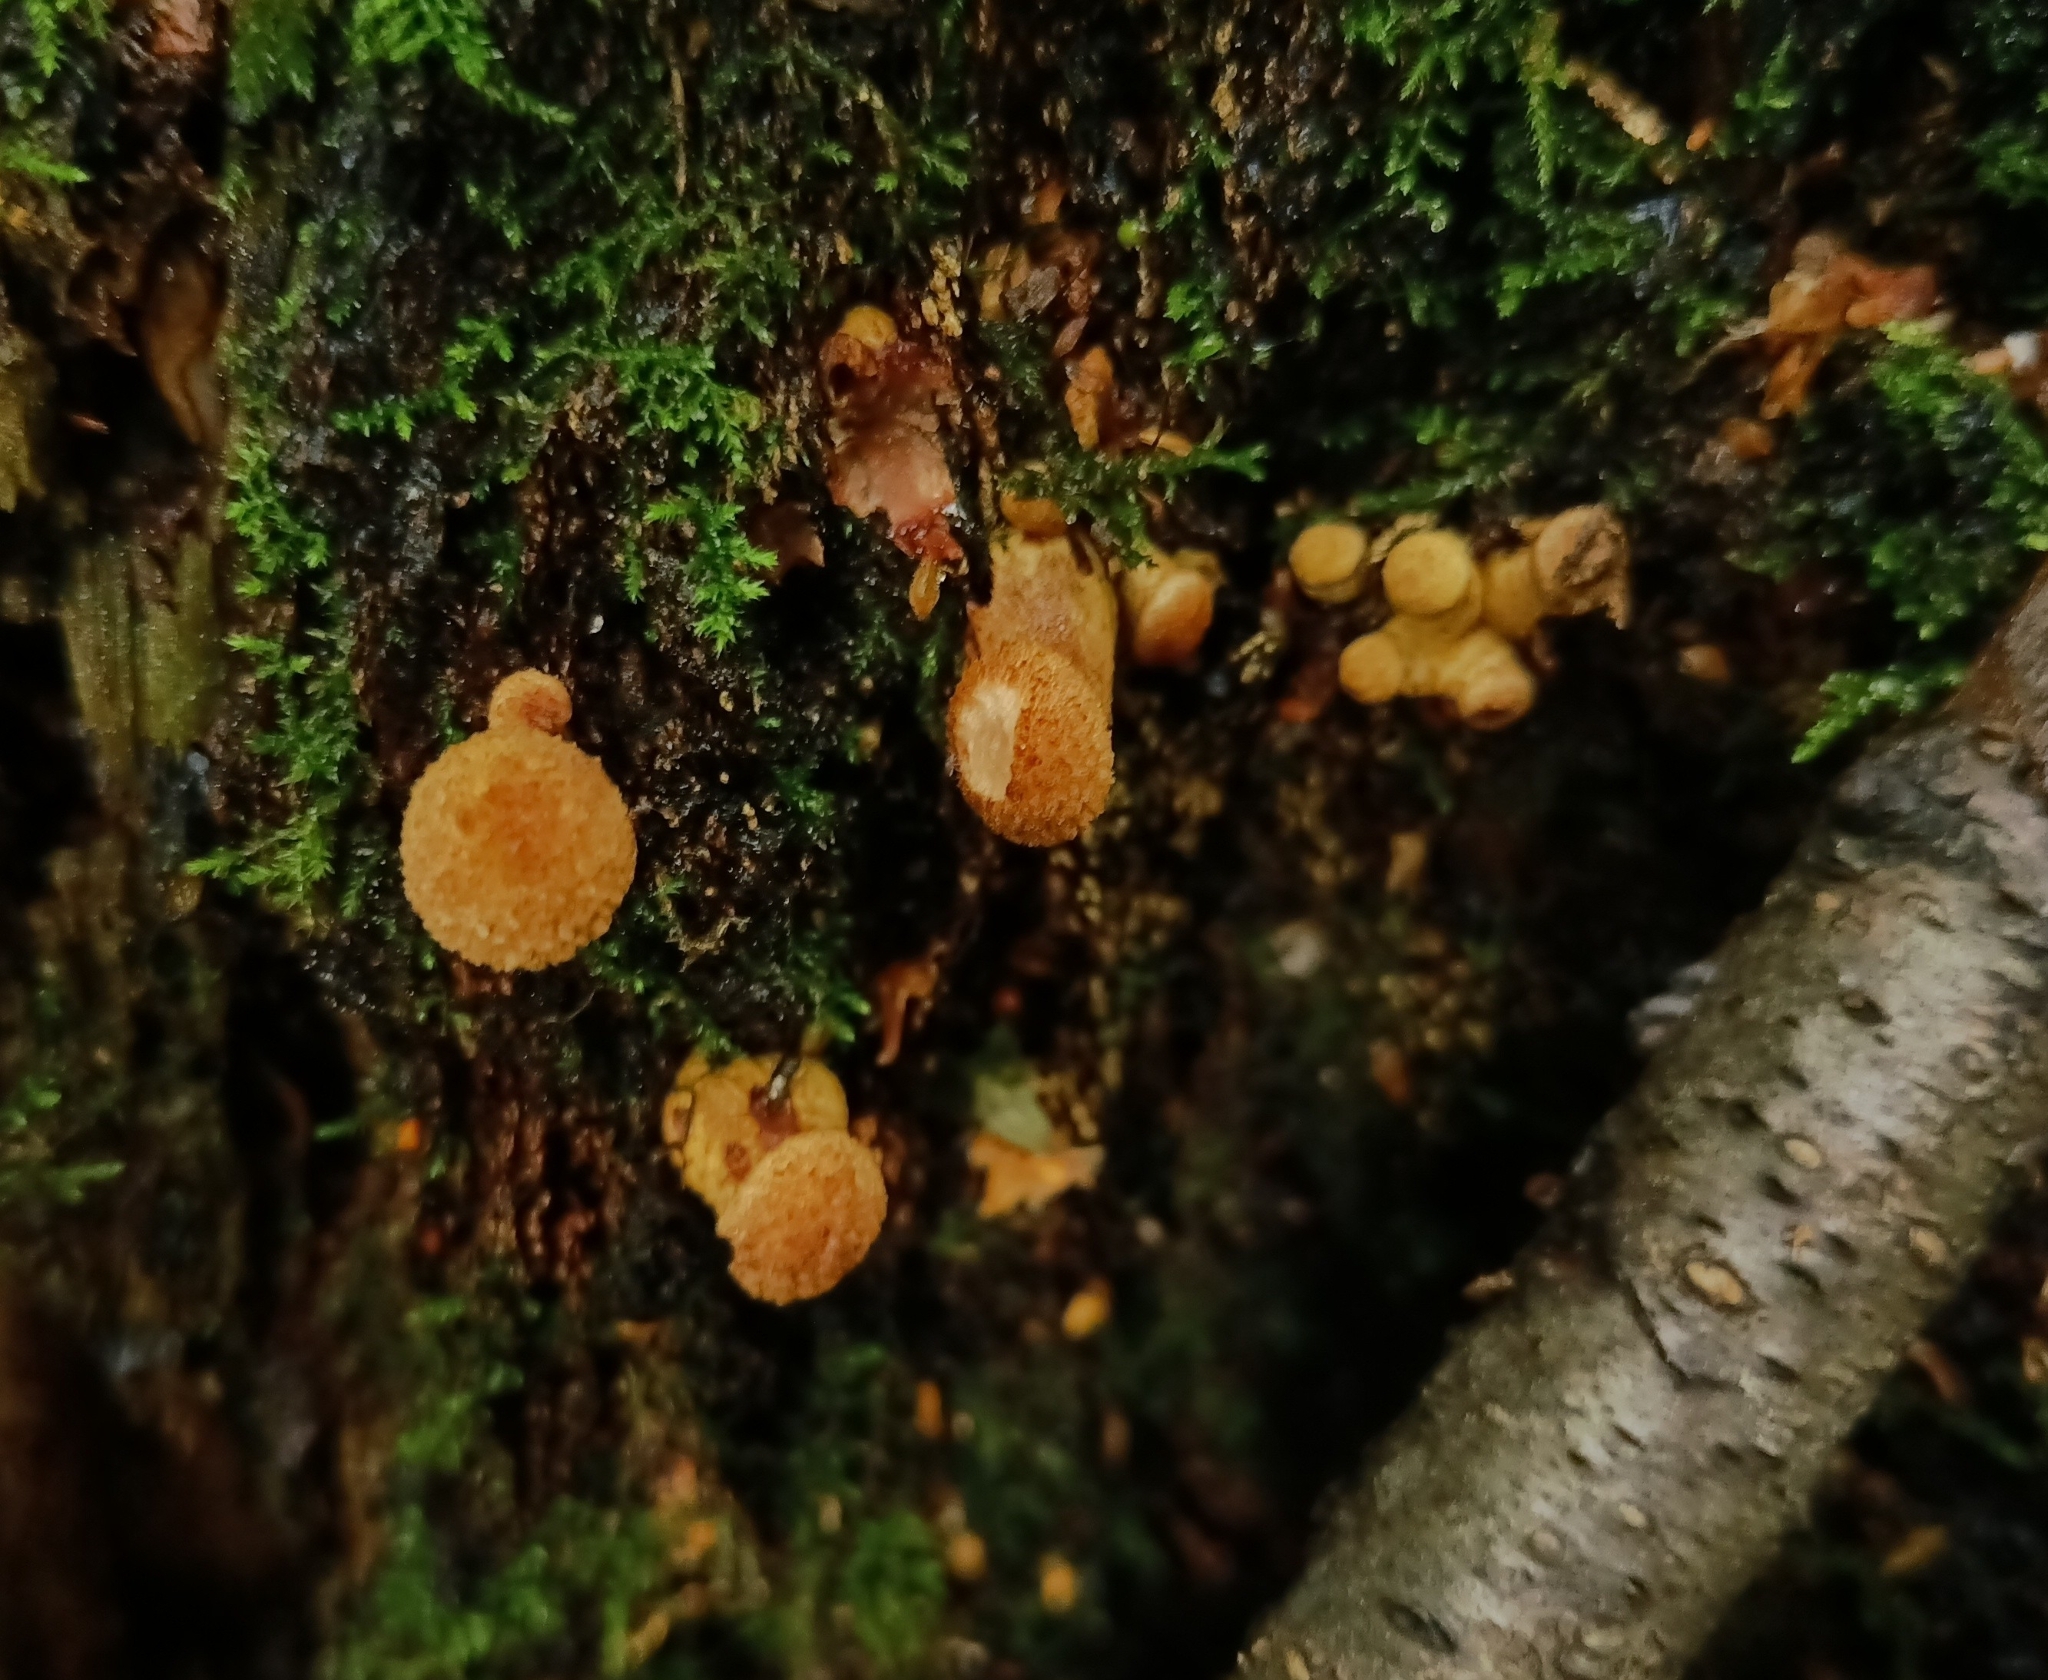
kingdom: Fungi
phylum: Basidiomycota
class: Agaricomycetes
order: Agaricales
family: Physalacriaceae
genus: Armillaria
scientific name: Armillaria borealis
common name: Northern honey fungus
